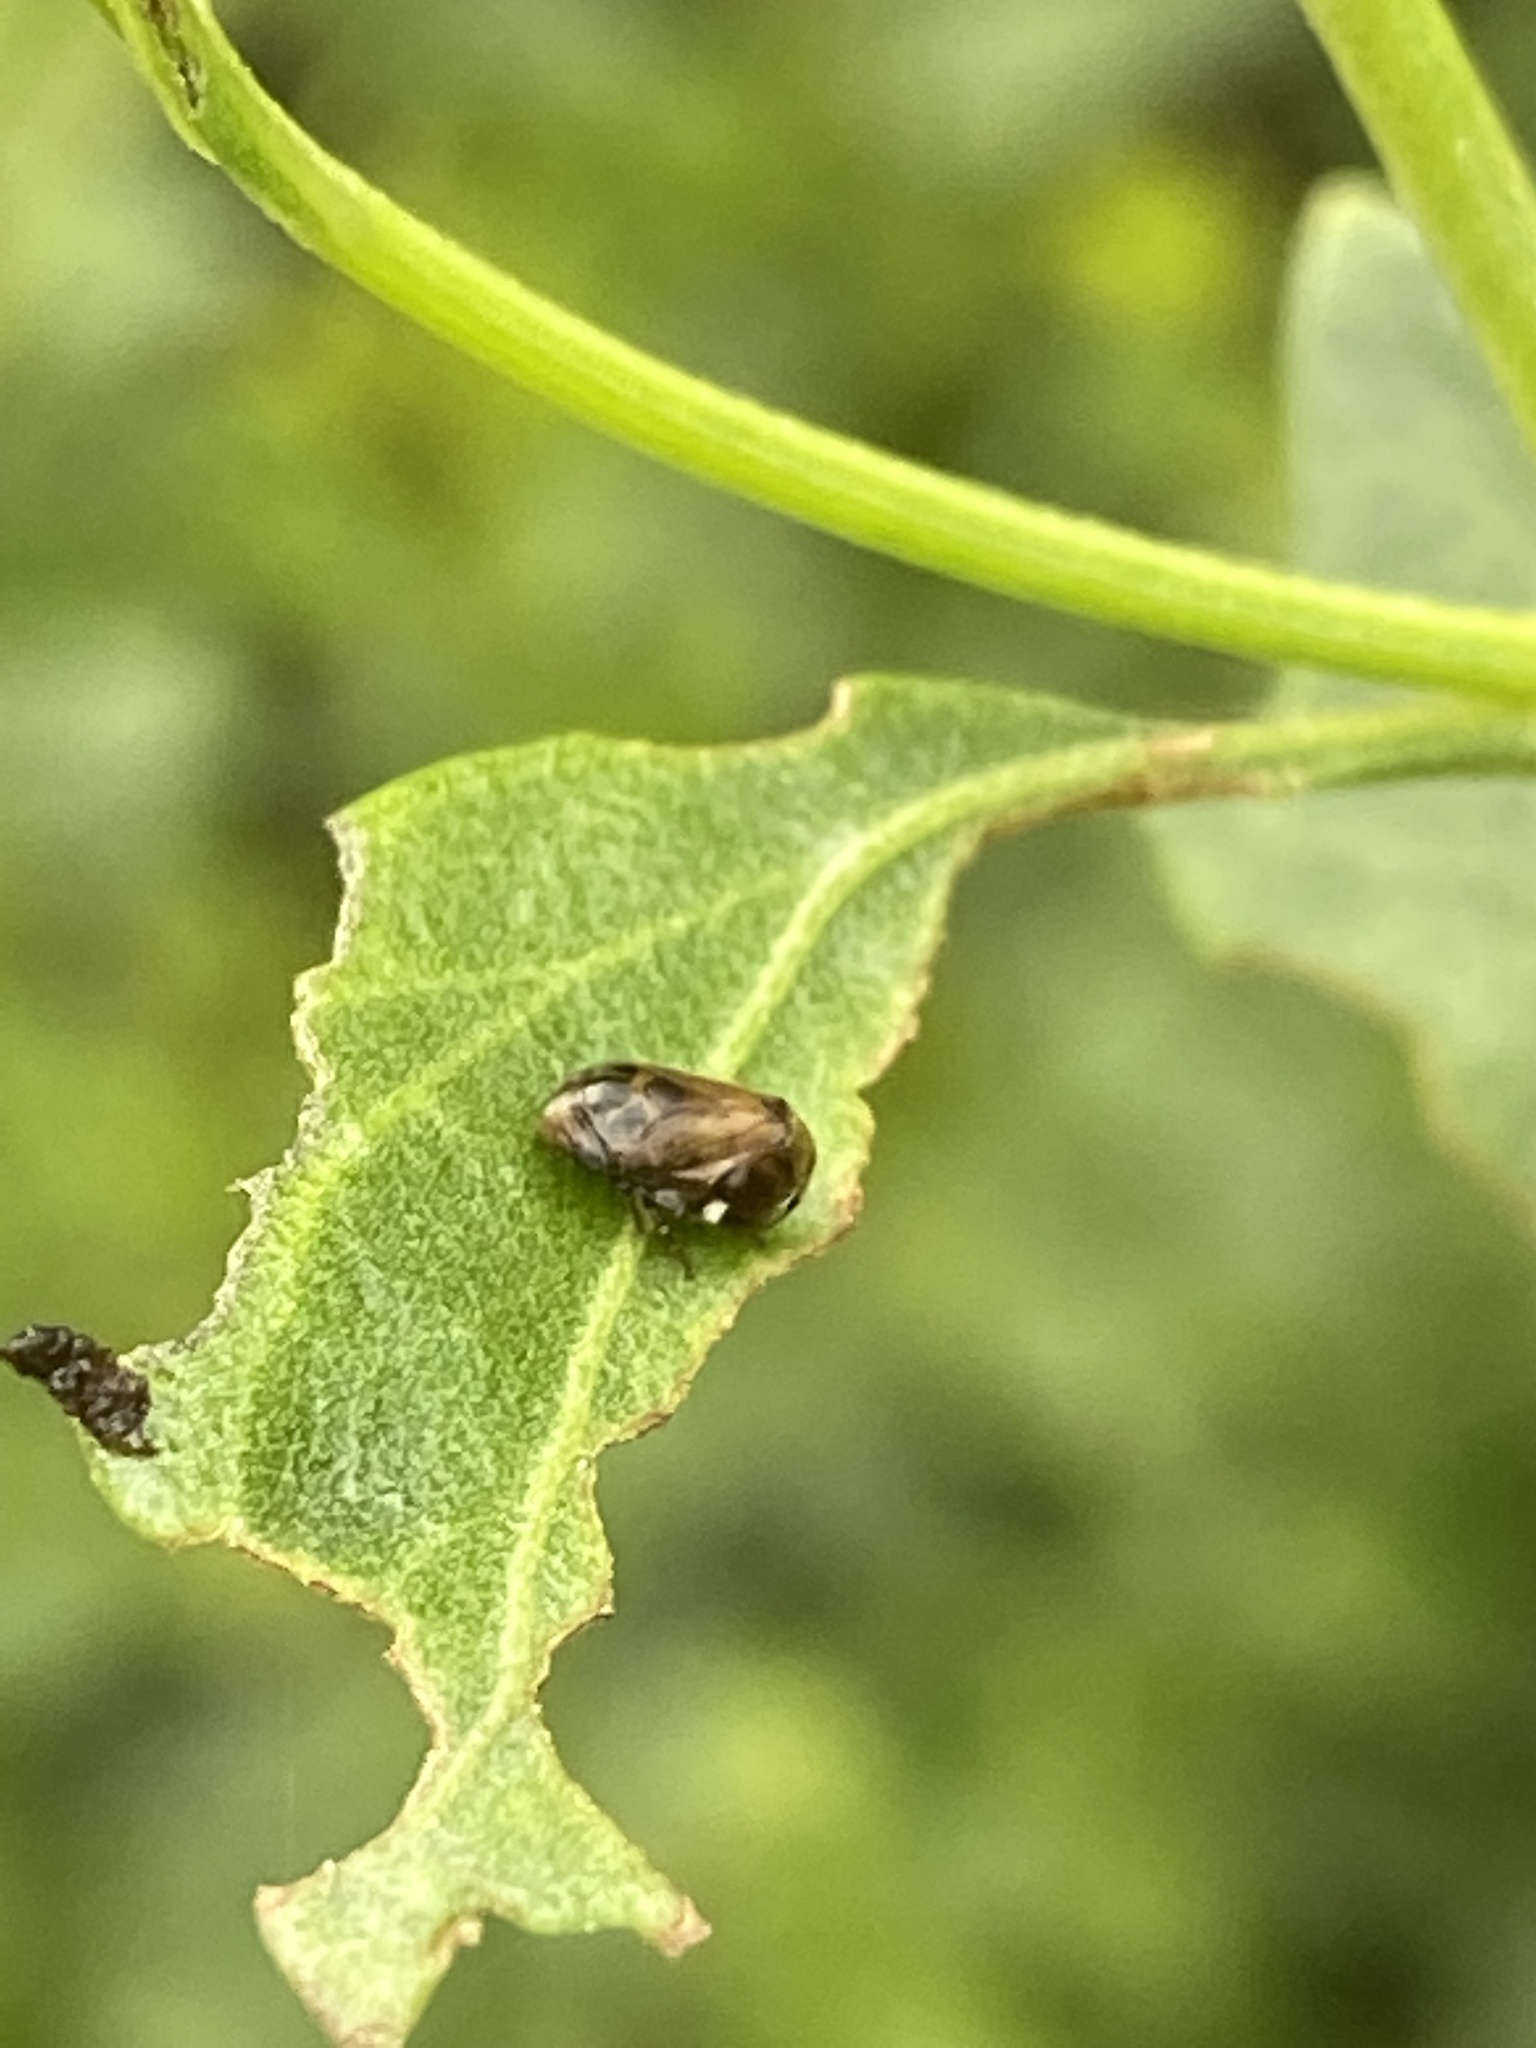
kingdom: Animalia
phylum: Arthropoda
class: Insecta
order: Hemiptera
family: Clastopteridae
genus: Clastoptera
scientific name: Clastoptera xanthocephala
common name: Sunflower spittlebug
